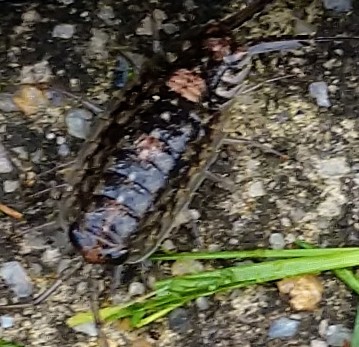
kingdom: Animalia
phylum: Arthropoda
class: Malacostraca
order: Isopoda
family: Ligiidae
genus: Ligia
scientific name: Ligia exotica
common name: Wharf roach
